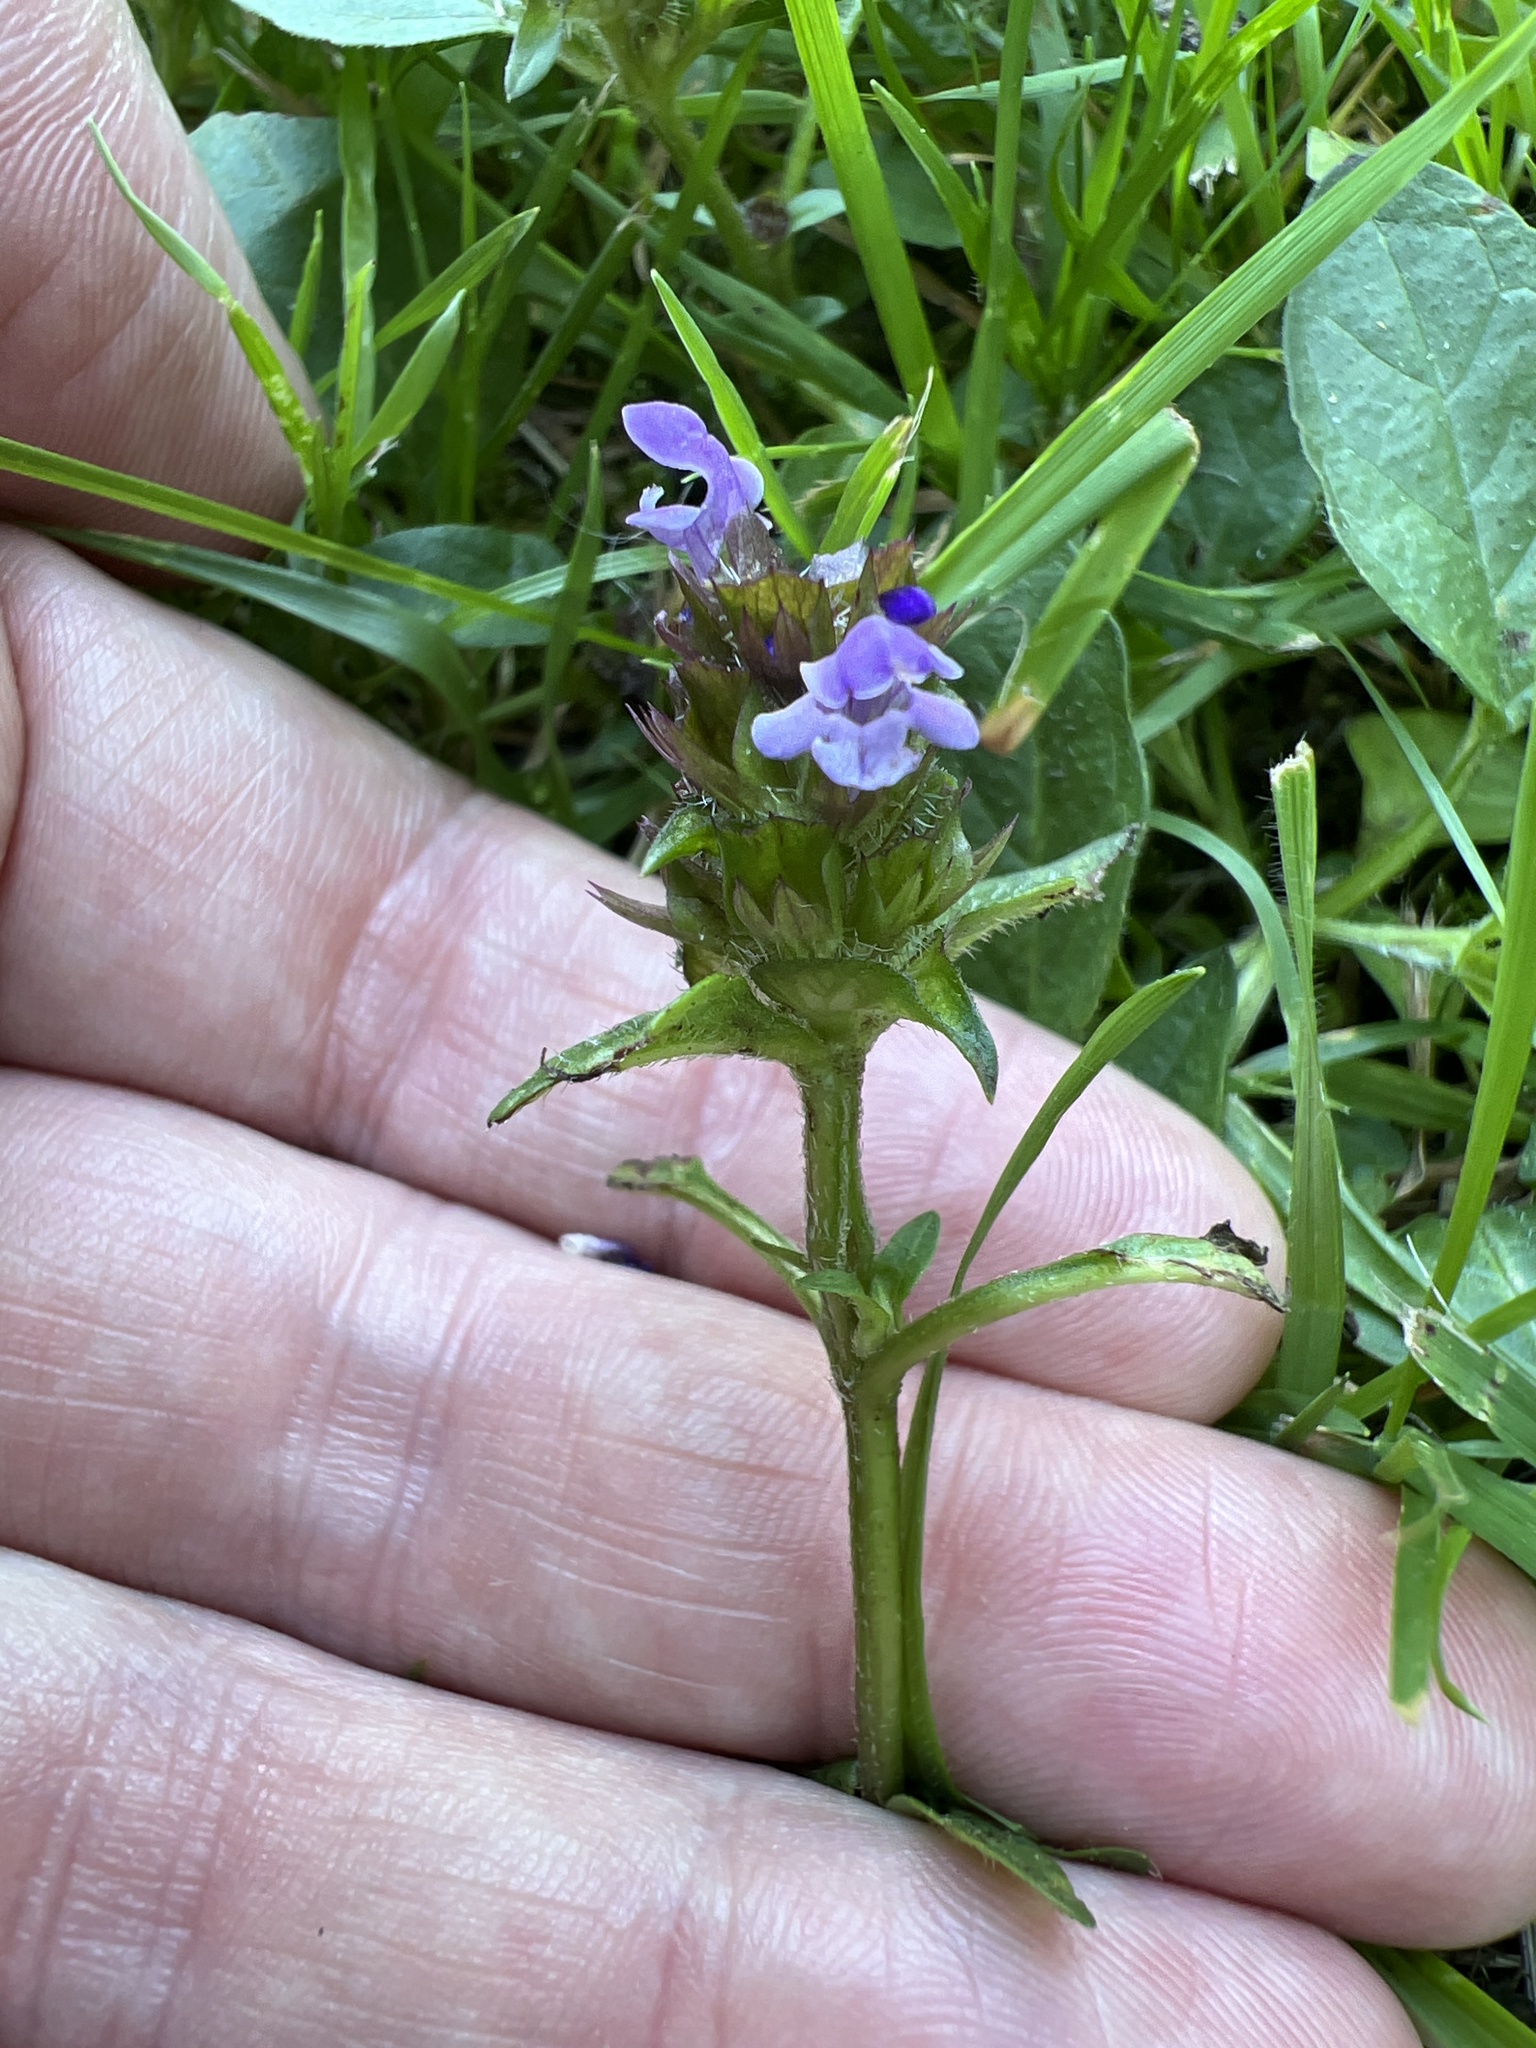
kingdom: Plantae
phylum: Tracheophyta
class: Magnoliopsida
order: Lamiales
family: Lamiaceae
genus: Prunella
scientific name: Prunella vulgaris
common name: Heal-all
